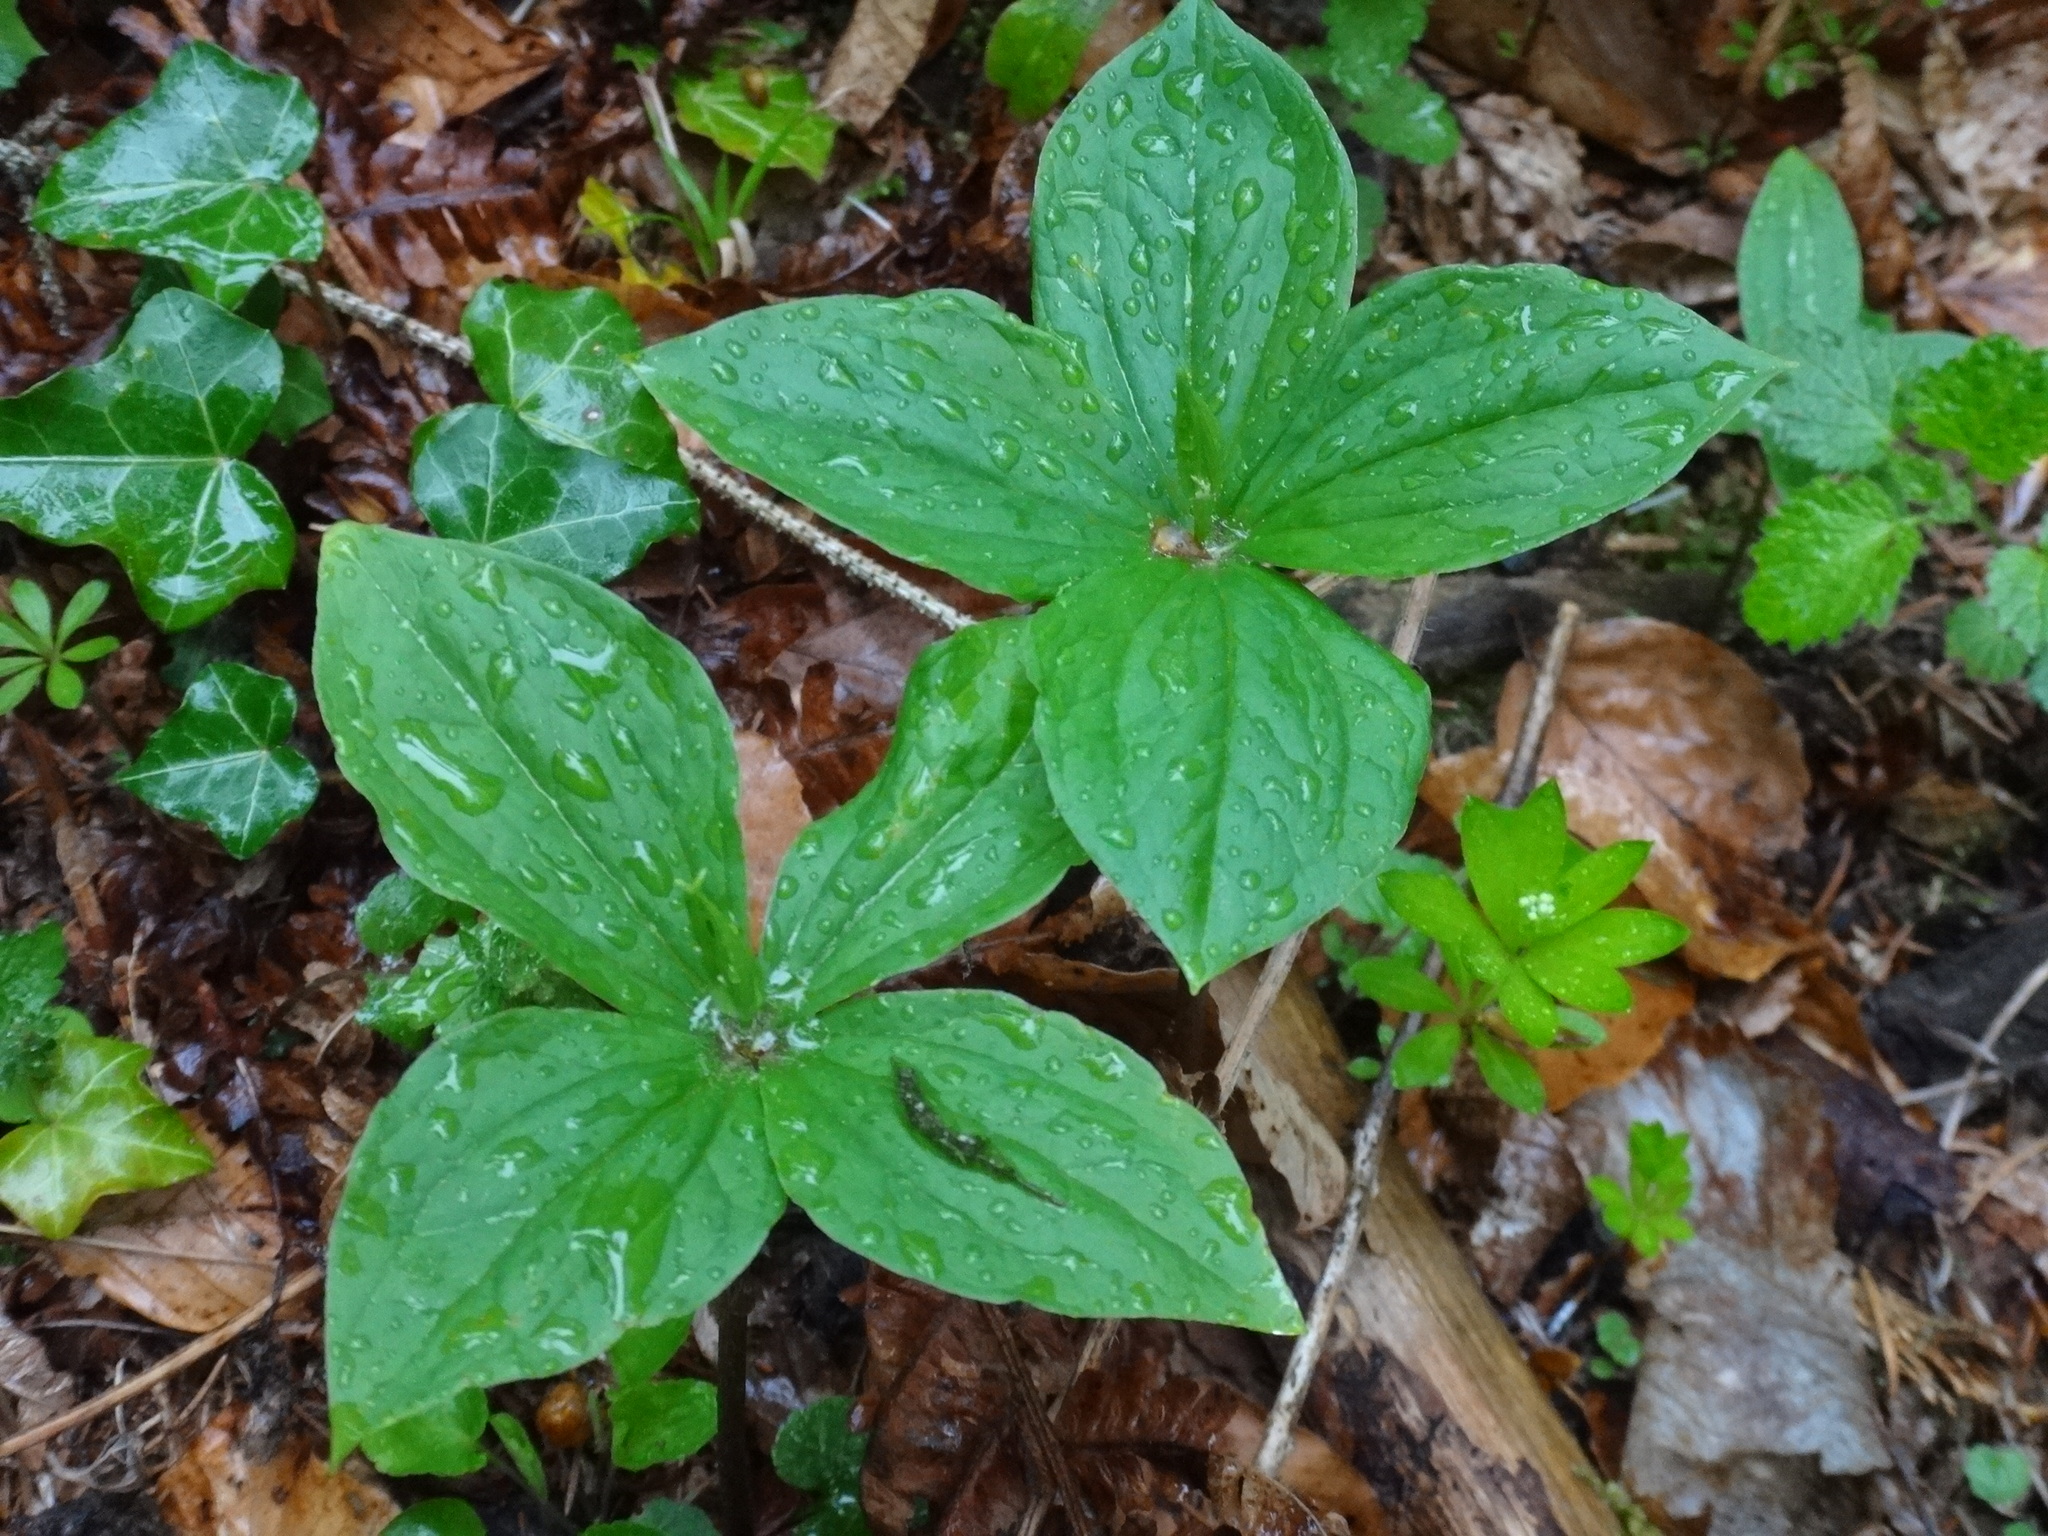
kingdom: Plantae
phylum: Tracheophyta
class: Liliopsida
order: Liliales
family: Melanthiaceae
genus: Paris
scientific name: Paris quadrifolia
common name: Herb-paris
